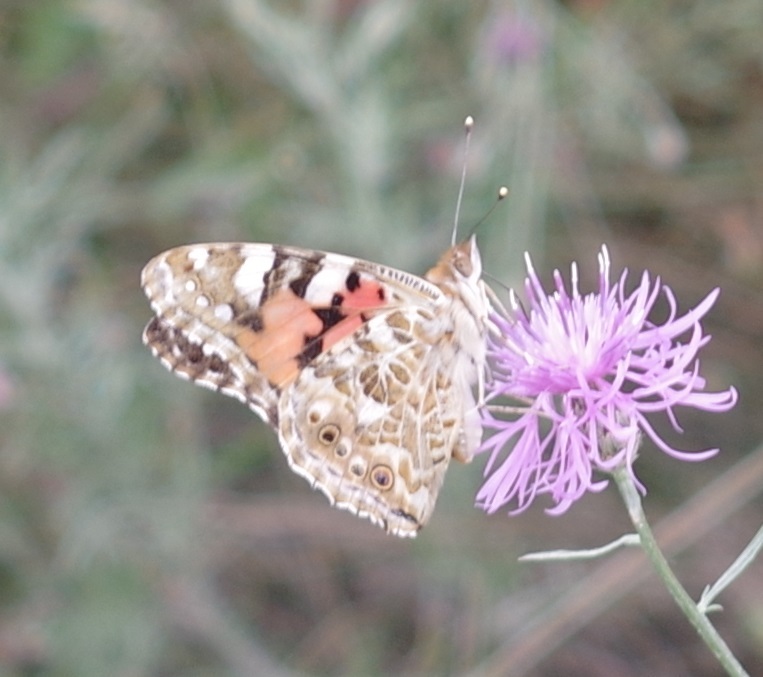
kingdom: Animalia
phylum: Arthropoda
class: Insecta
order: Lepidoptera
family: Nymphalidae
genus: Vanessa
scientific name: Vanessa cardui
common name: Painted lady
